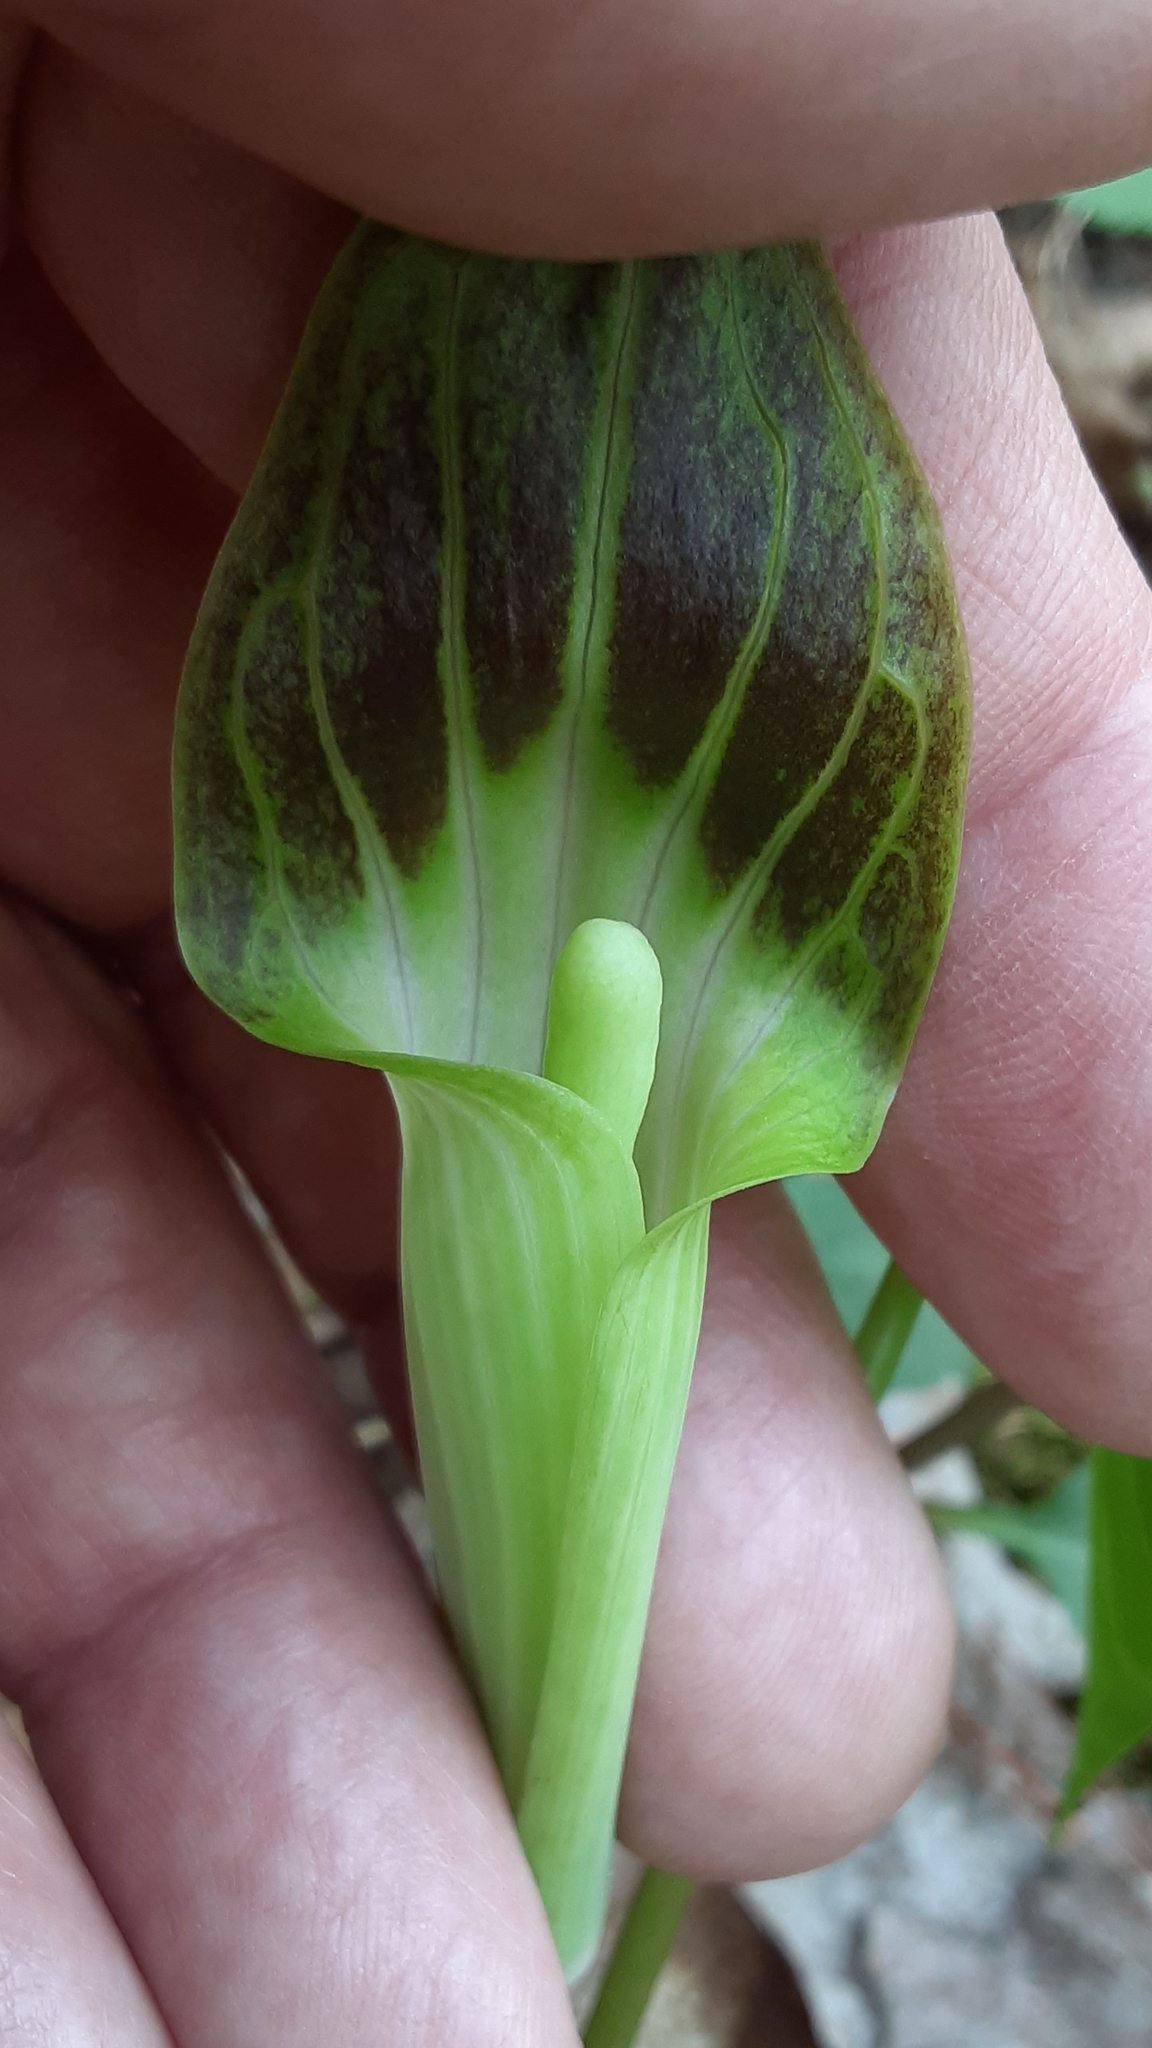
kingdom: Plantae
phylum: Tracheophyta
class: Liliopsida
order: Alismatales
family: Araceae
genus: Arisaema
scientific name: Arisaema triphyllum
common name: Jack-in-the-pulpit
